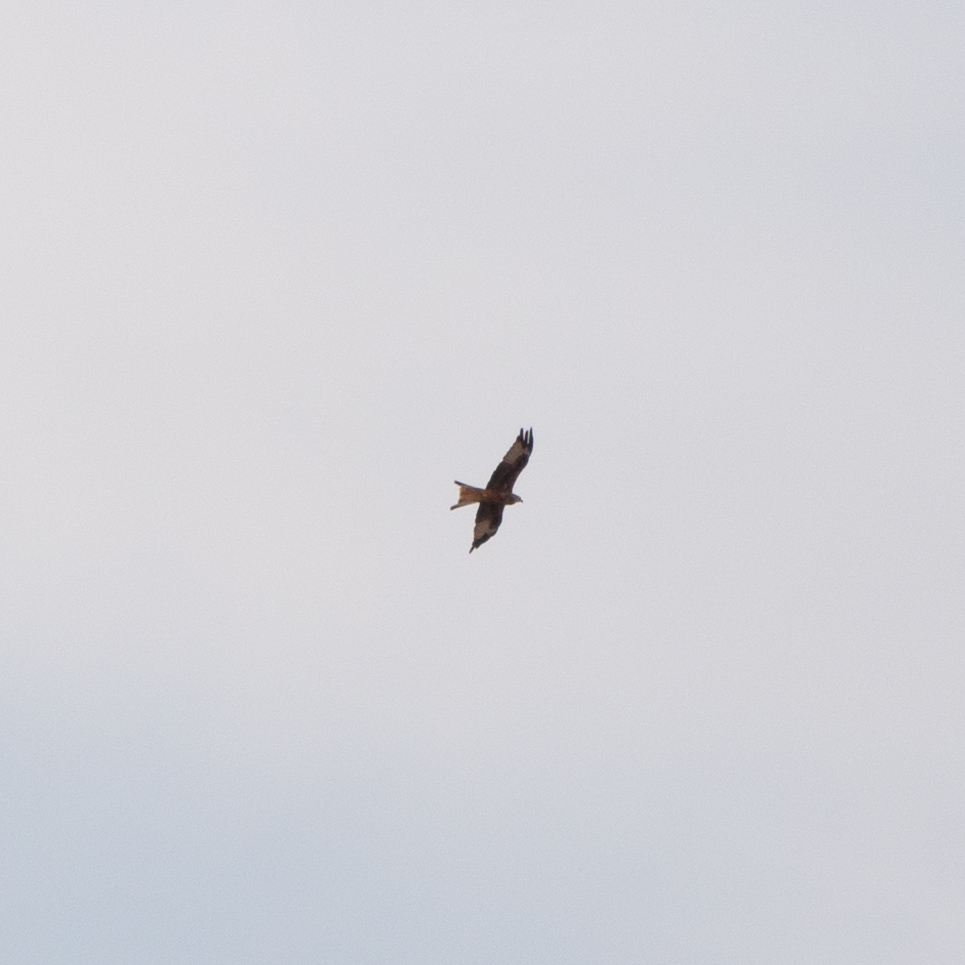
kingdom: Animalia
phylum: Chordata
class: Aves
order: Accipitriformes
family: Accipitridae
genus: Milvus
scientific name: Milvus milvus
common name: Red kite
